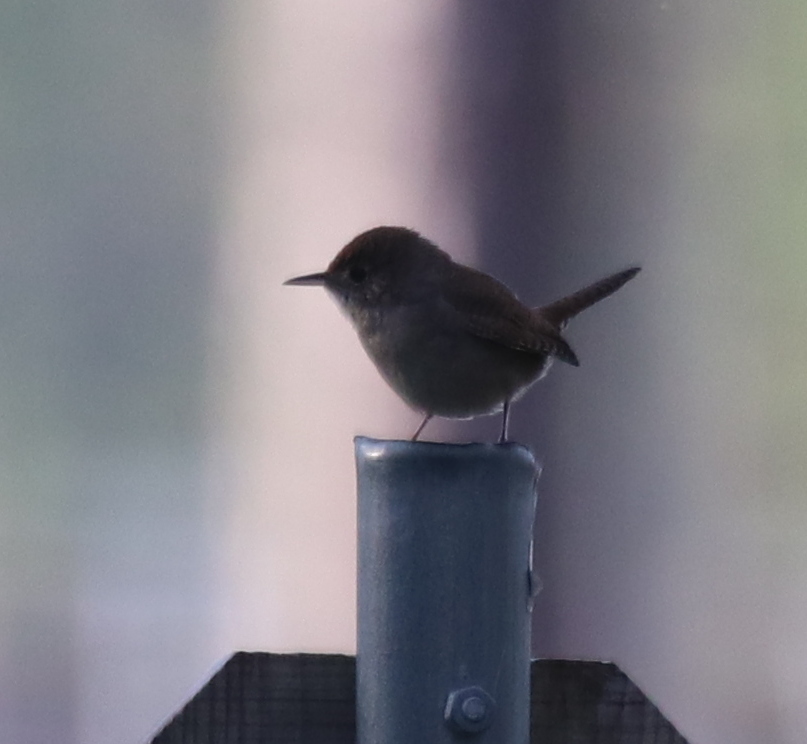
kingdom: Animalia
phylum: Chordata
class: Aves
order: Passeriformes
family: Troglodytidae
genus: Troglodytes
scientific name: Troglodytes aedon
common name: House wren
